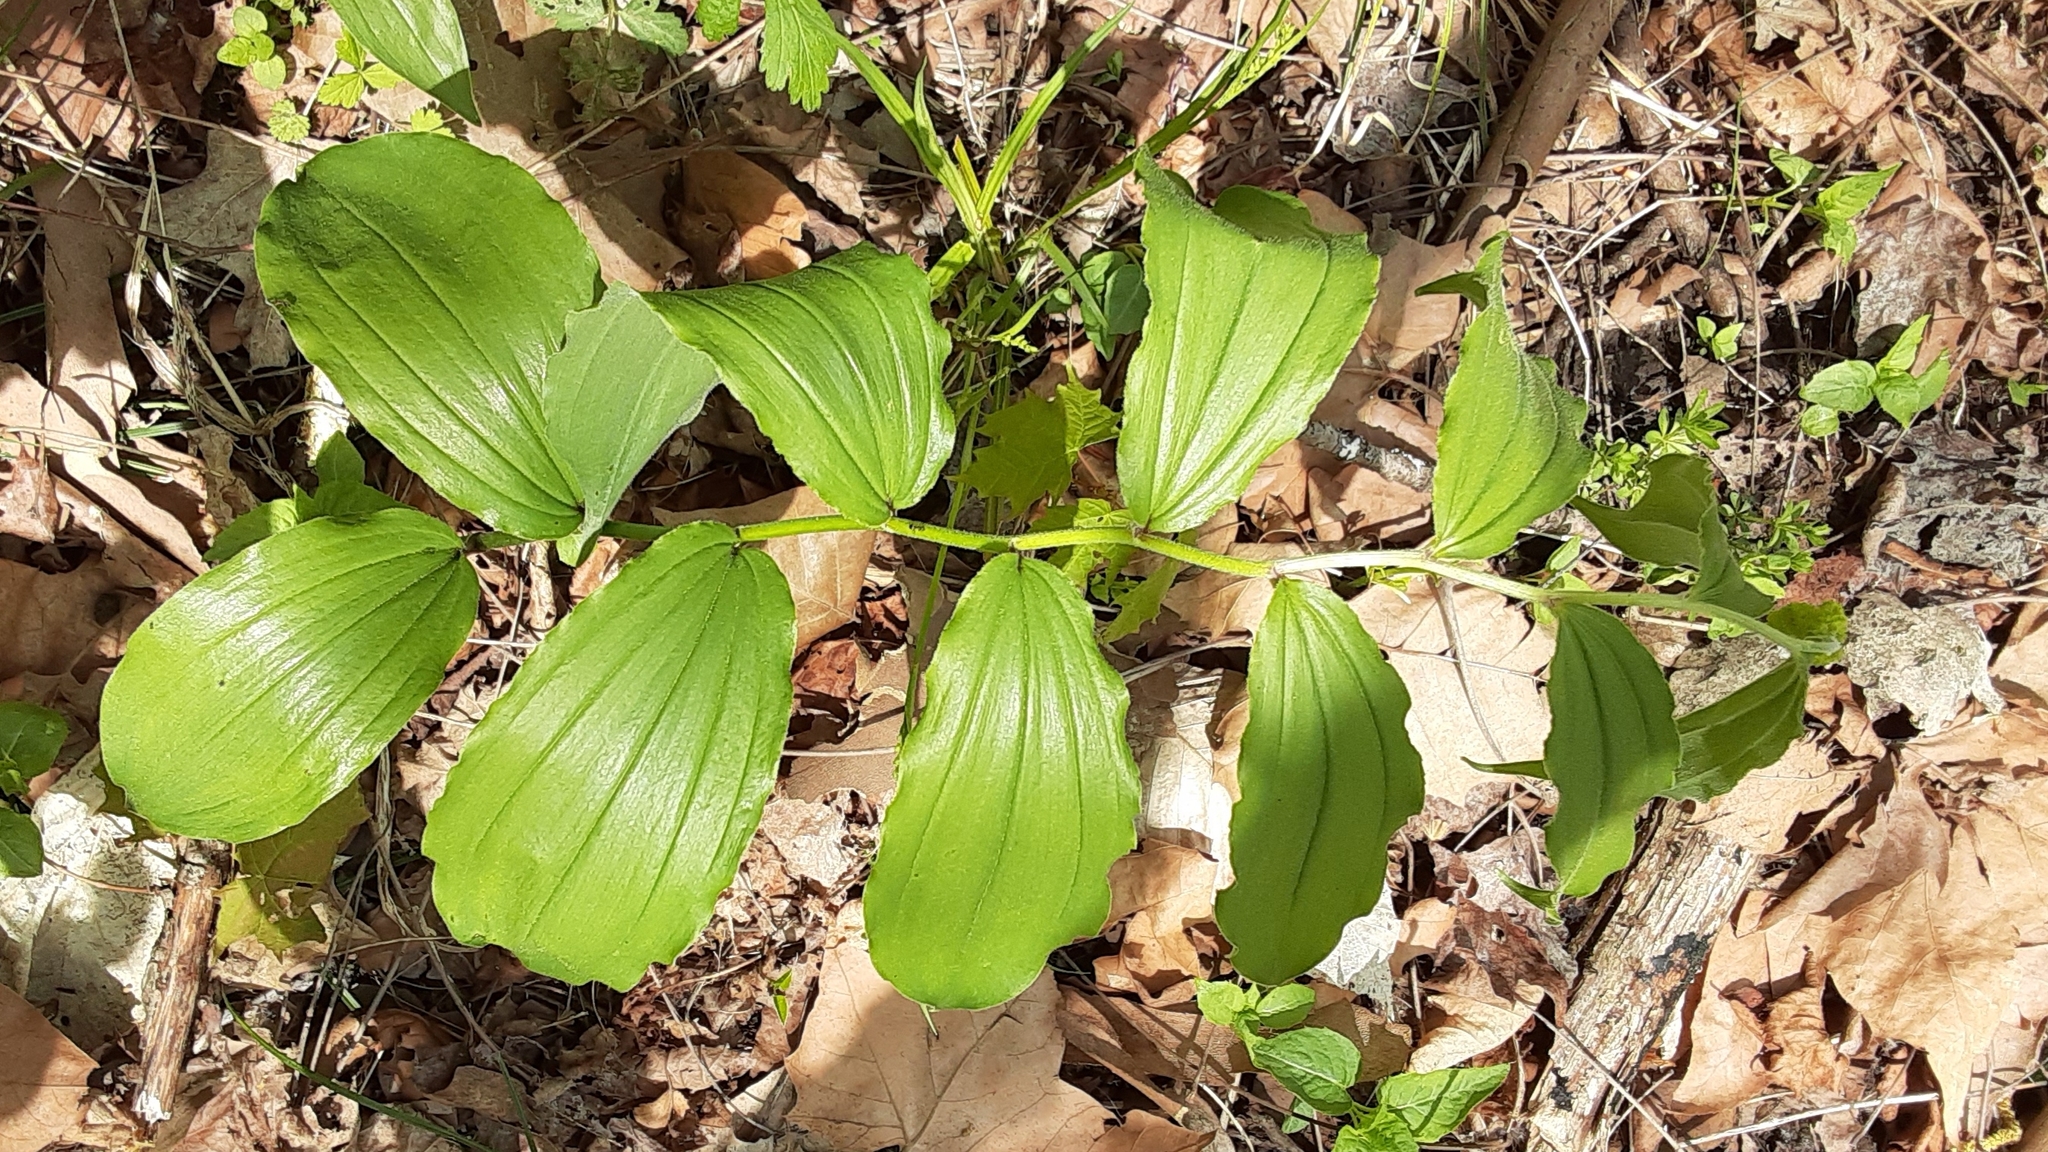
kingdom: Plantae
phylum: Tracheophyta
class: Liliopsida
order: Asparagales
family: Asparagaceae
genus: Maianthemum
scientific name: Maianthemum racemosum
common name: False spikenard
